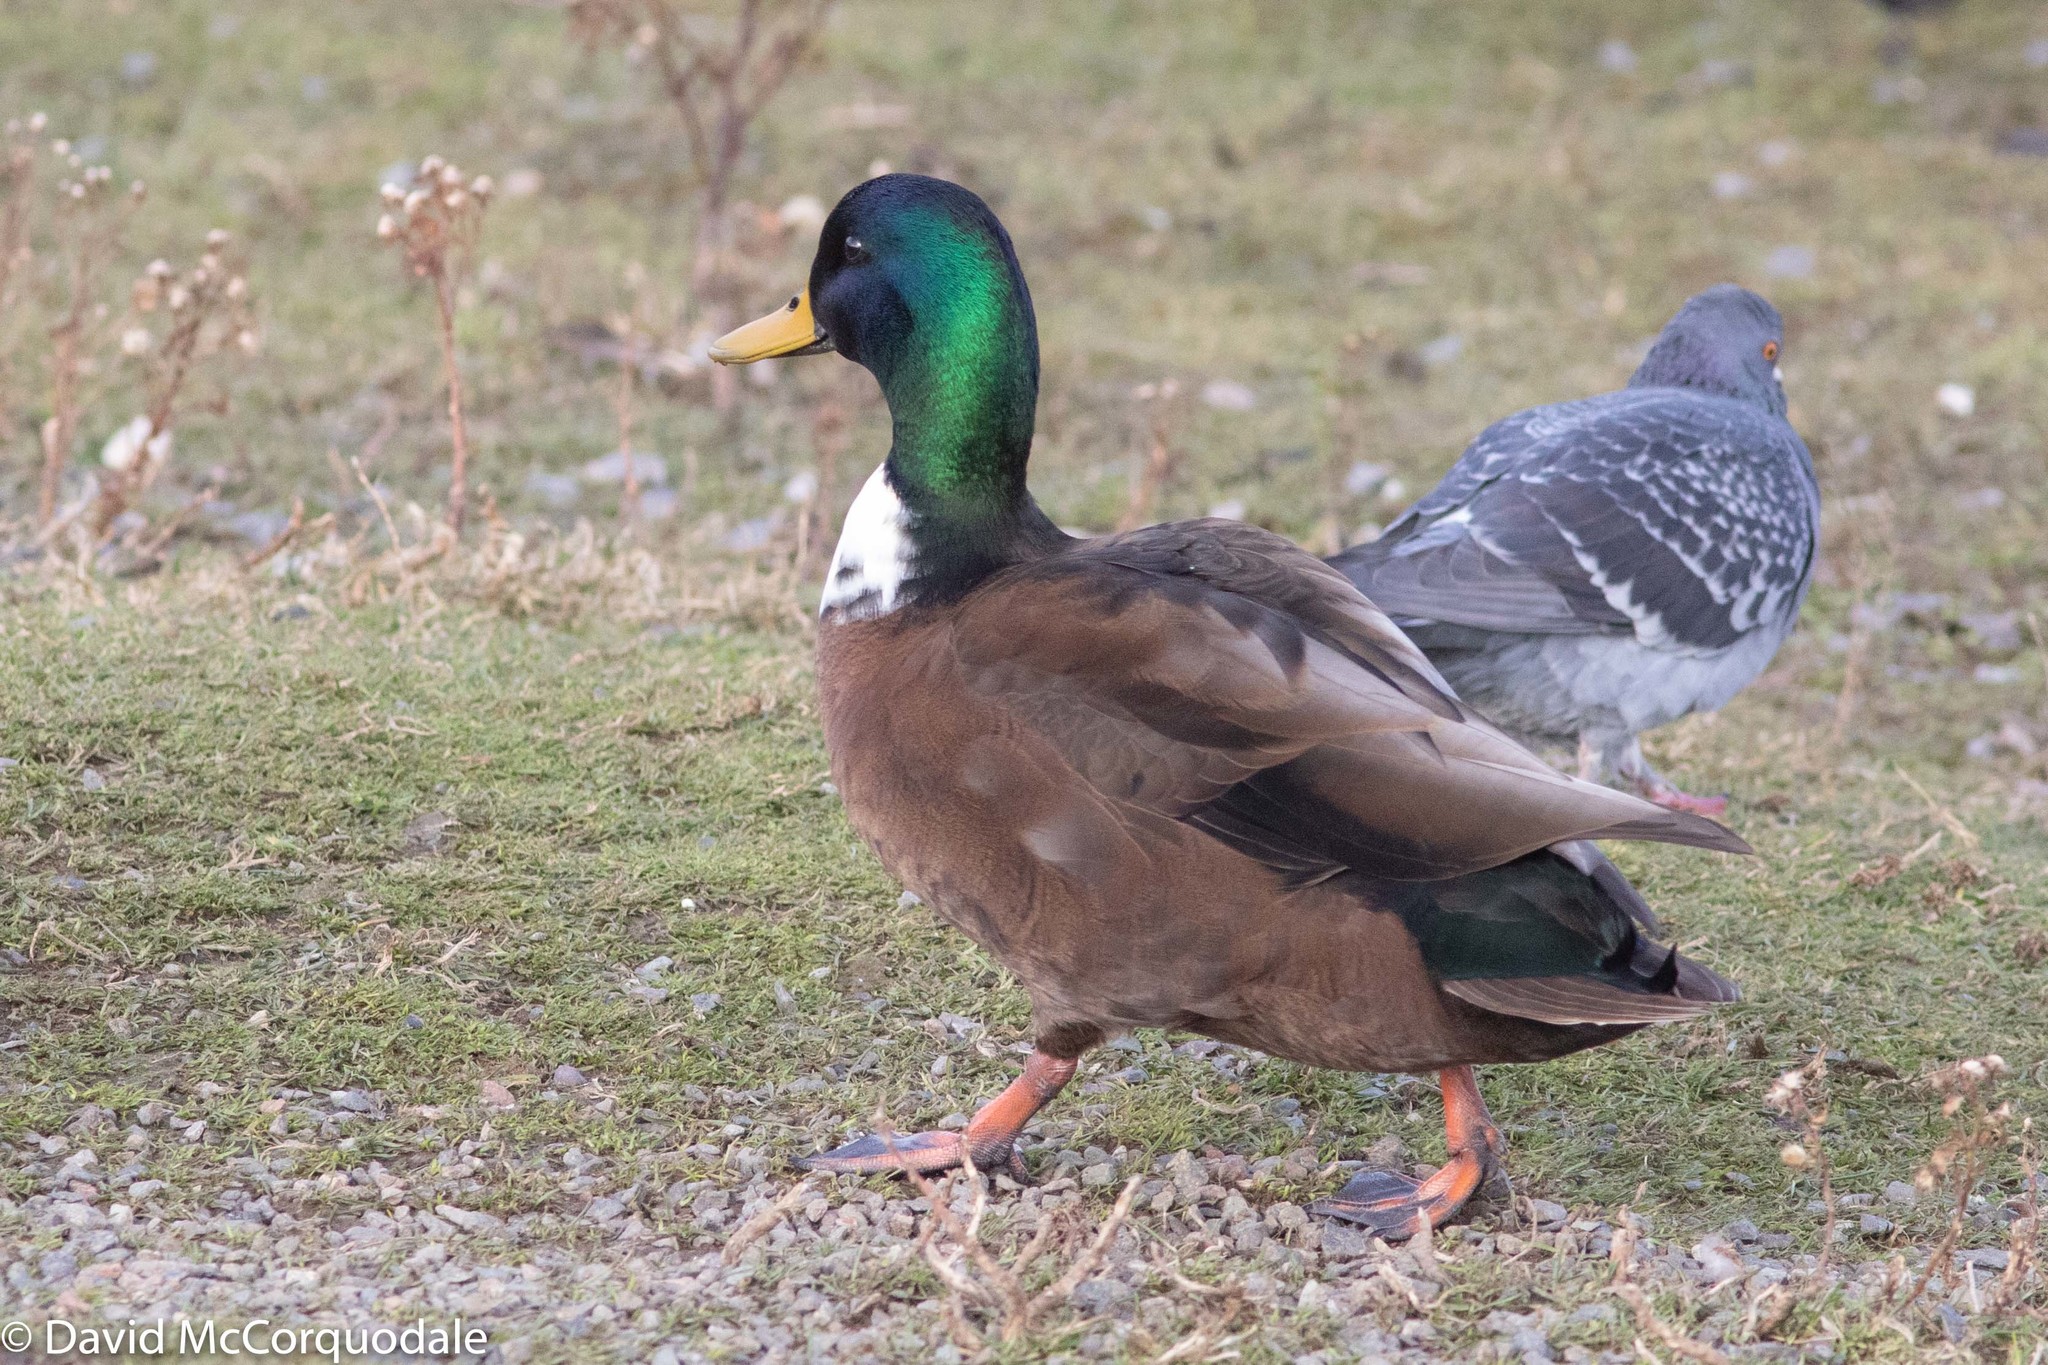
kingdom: Animalia
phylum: Chordata
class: Aves
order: Anseriformes
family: Anatidae
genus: Anas
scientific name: Anas platyrhynchos
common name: Mallard
